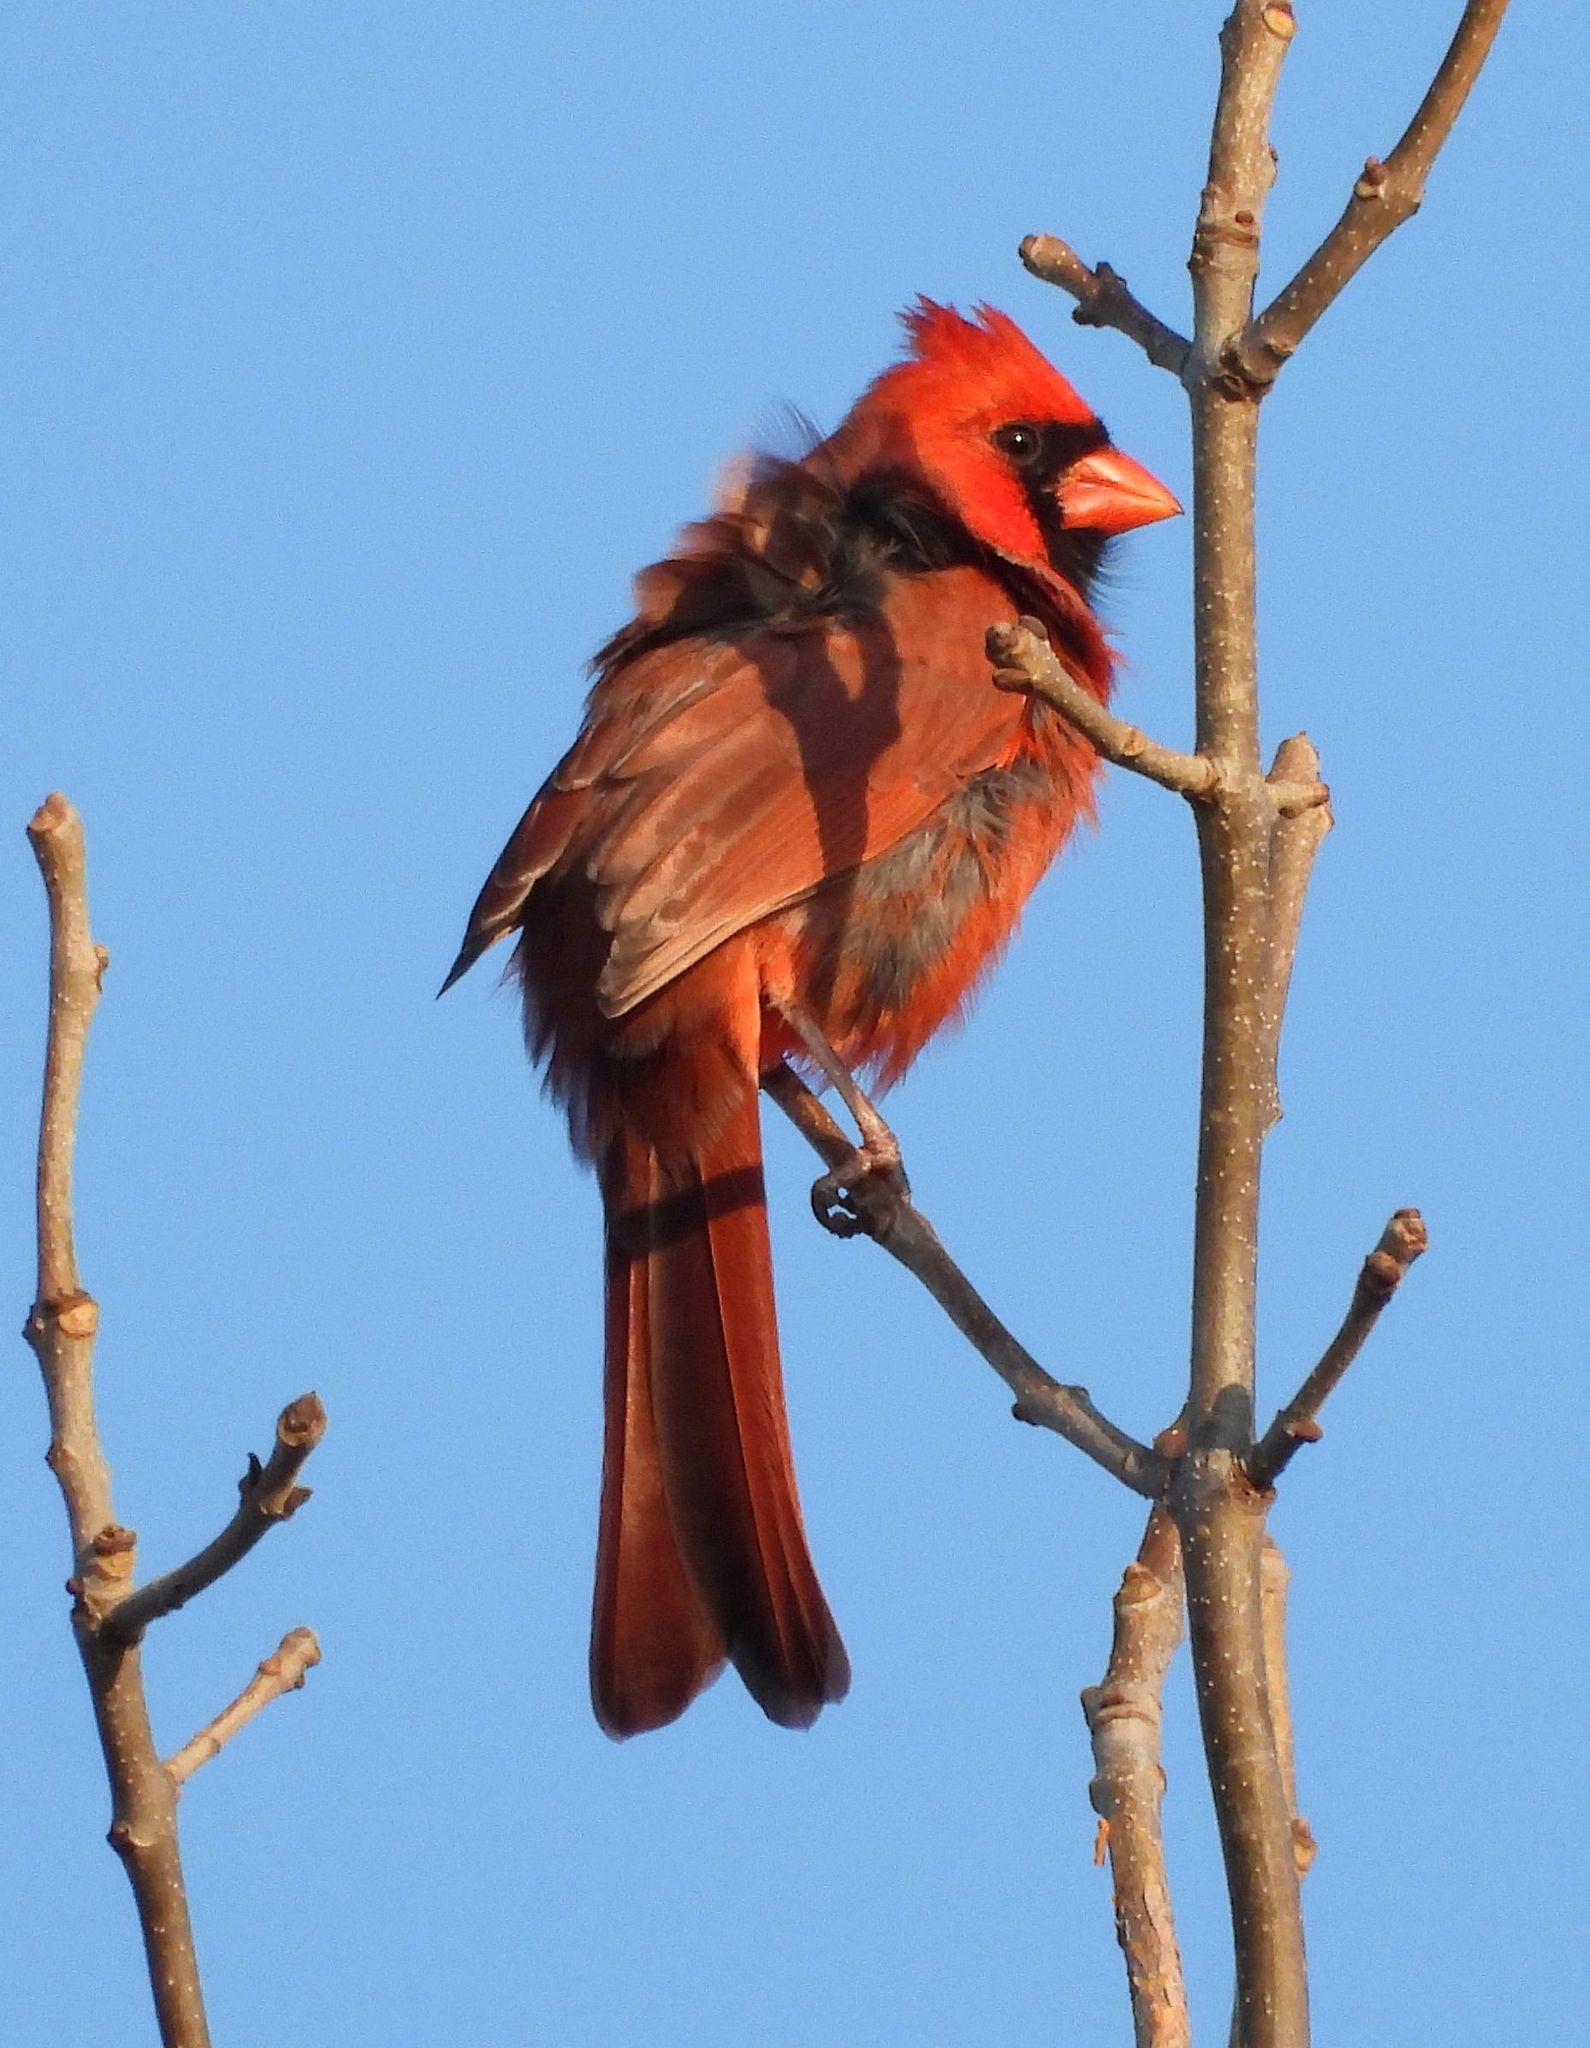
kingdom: Animalia
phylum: Chordata
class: Aves
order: Passeriformes
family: Cardinalidae
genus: Cardinalis
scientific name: Cardinalis cardinalis
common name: Northern cardinal
